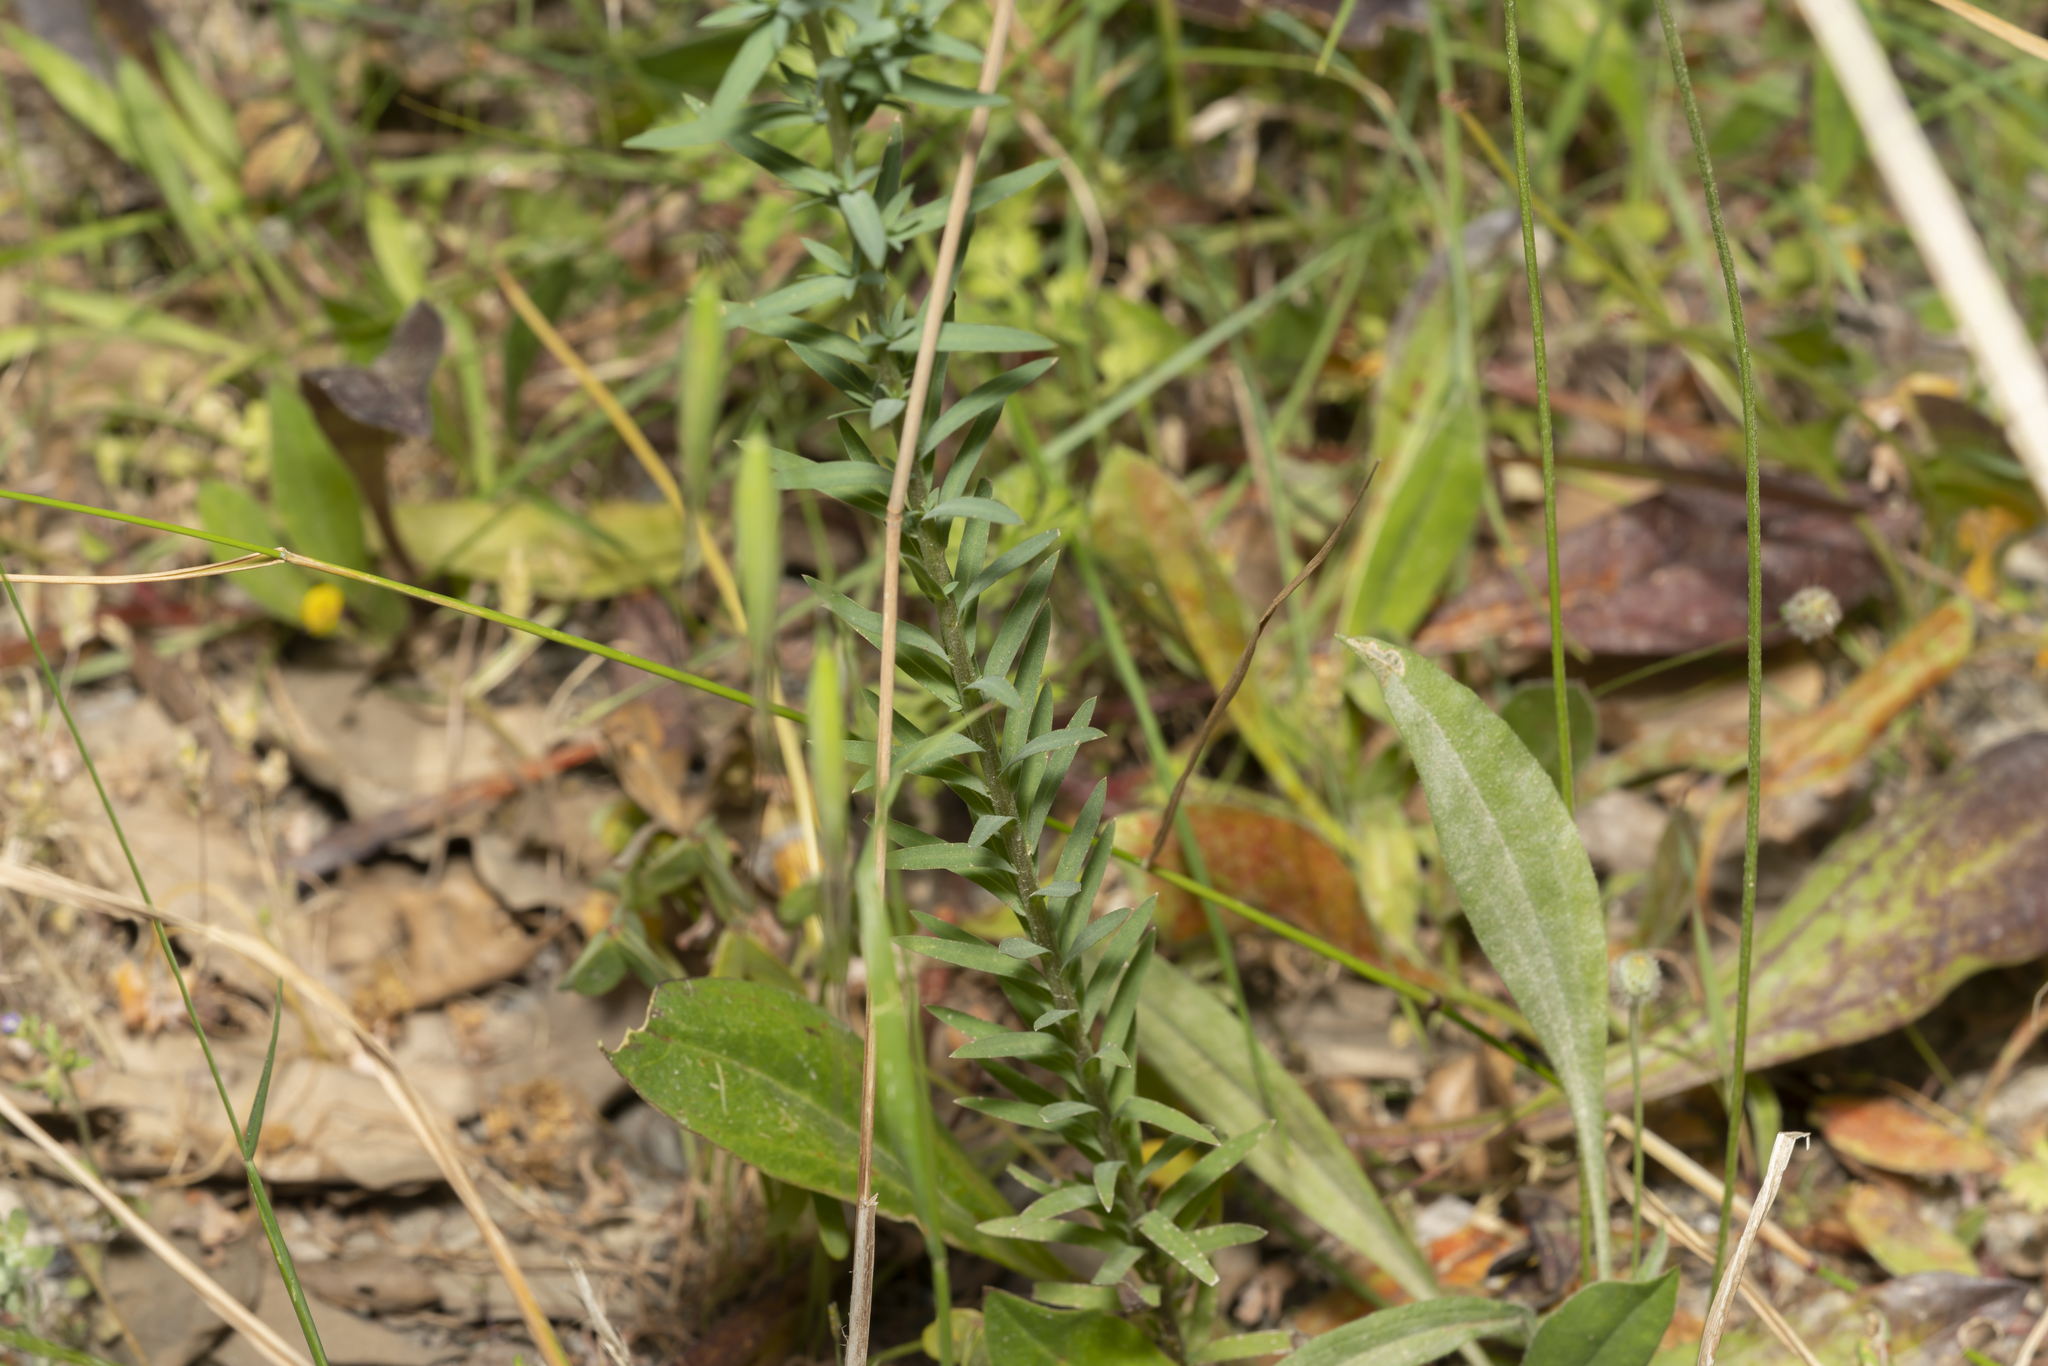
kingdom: Plantae
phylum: Tracheophyta
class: Magnoliopsida
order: Malpighiales
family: Linaceae
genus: Linum
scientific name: Linum strictum
